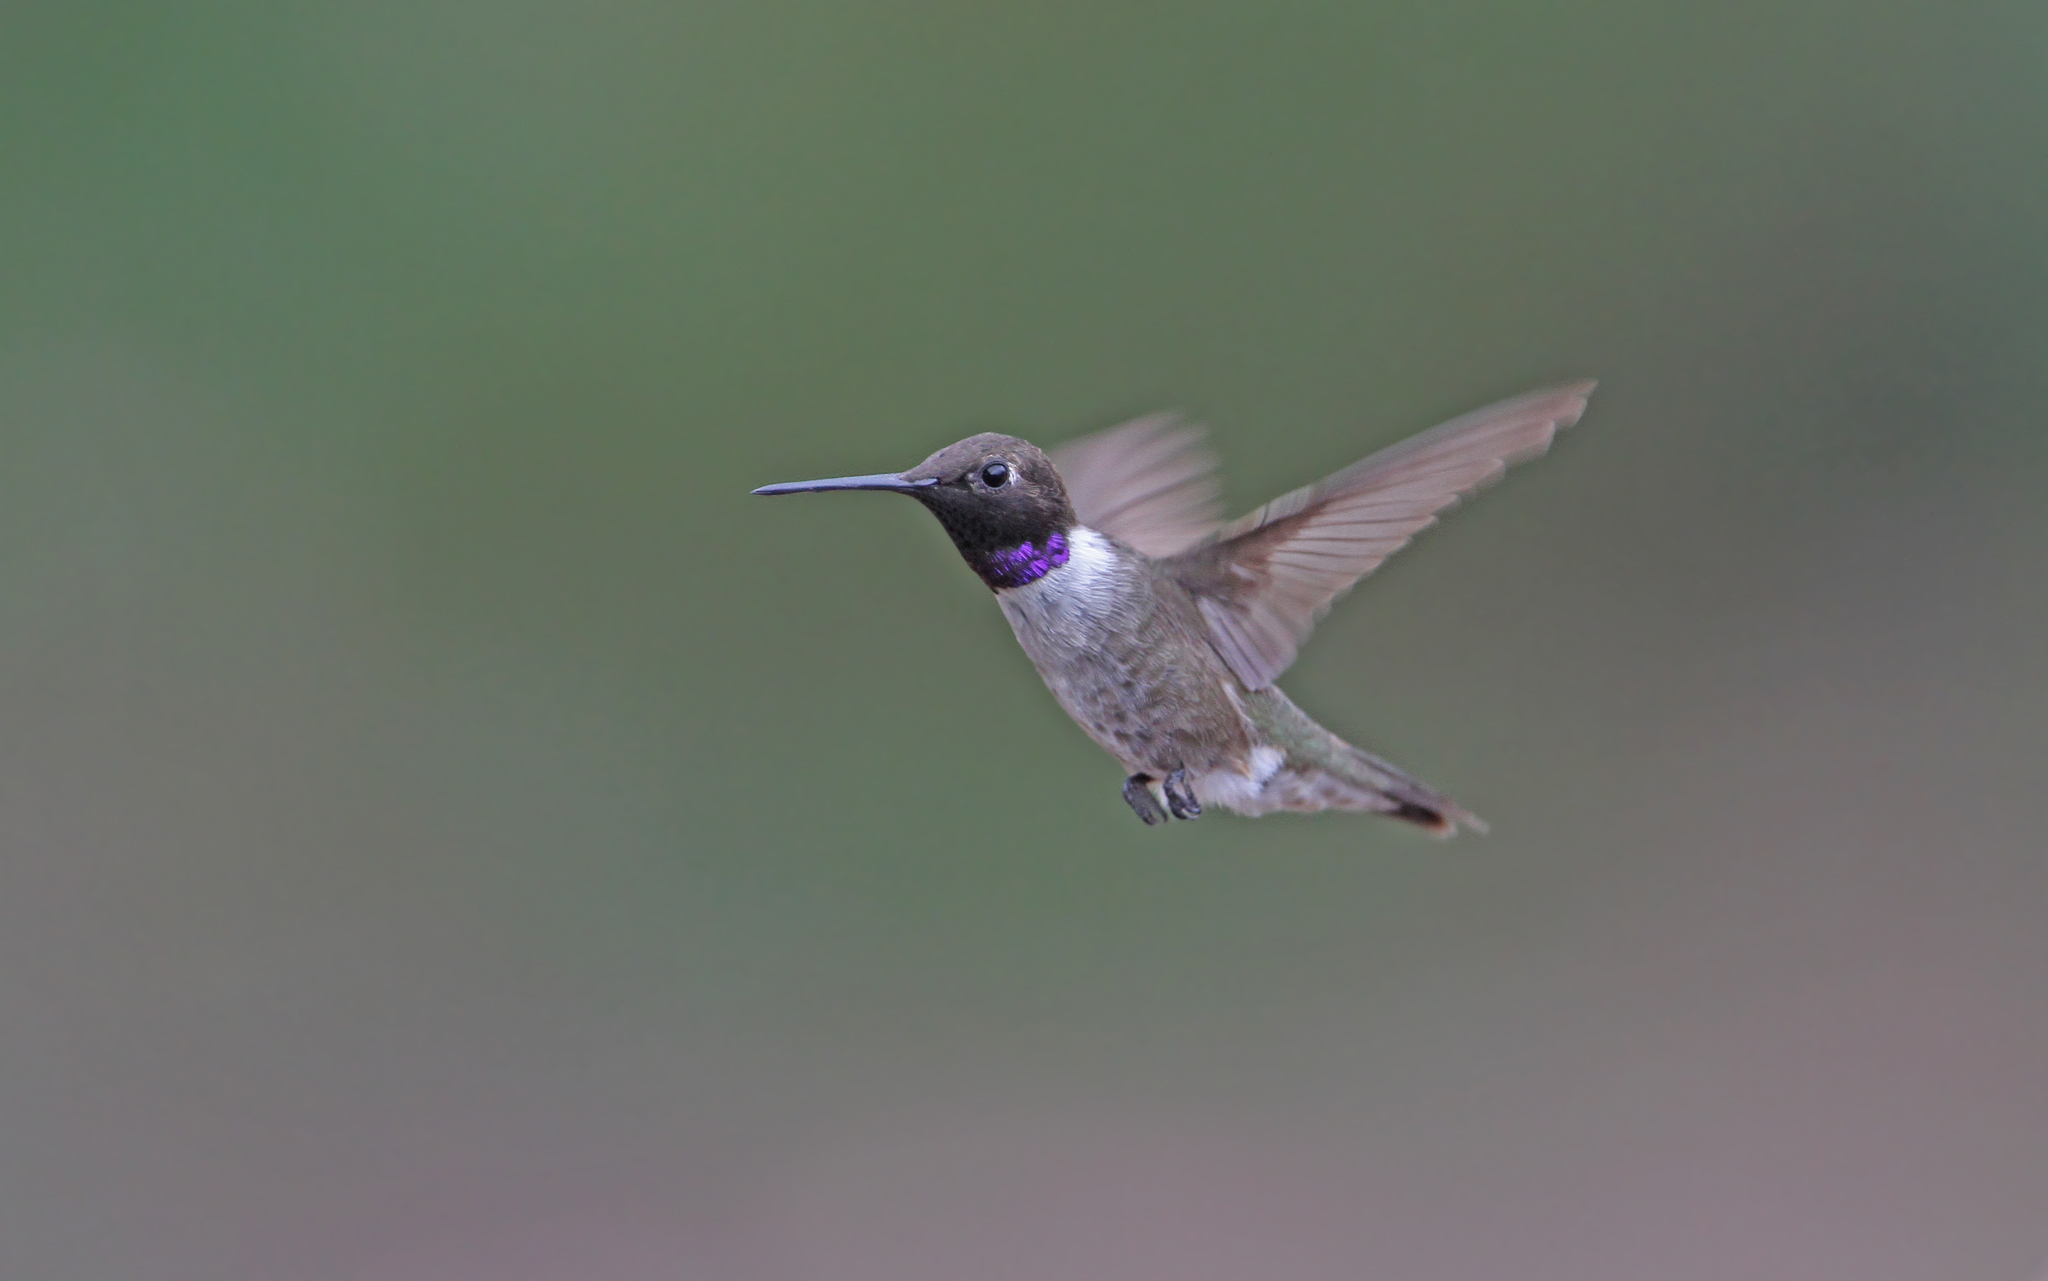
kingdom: Animalia
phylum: Chordata
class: Aves
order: Apodiformes
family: Trochilidae
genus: Archilochus
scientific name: Archilochus alexandri
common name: Black-chinned hummingbird
